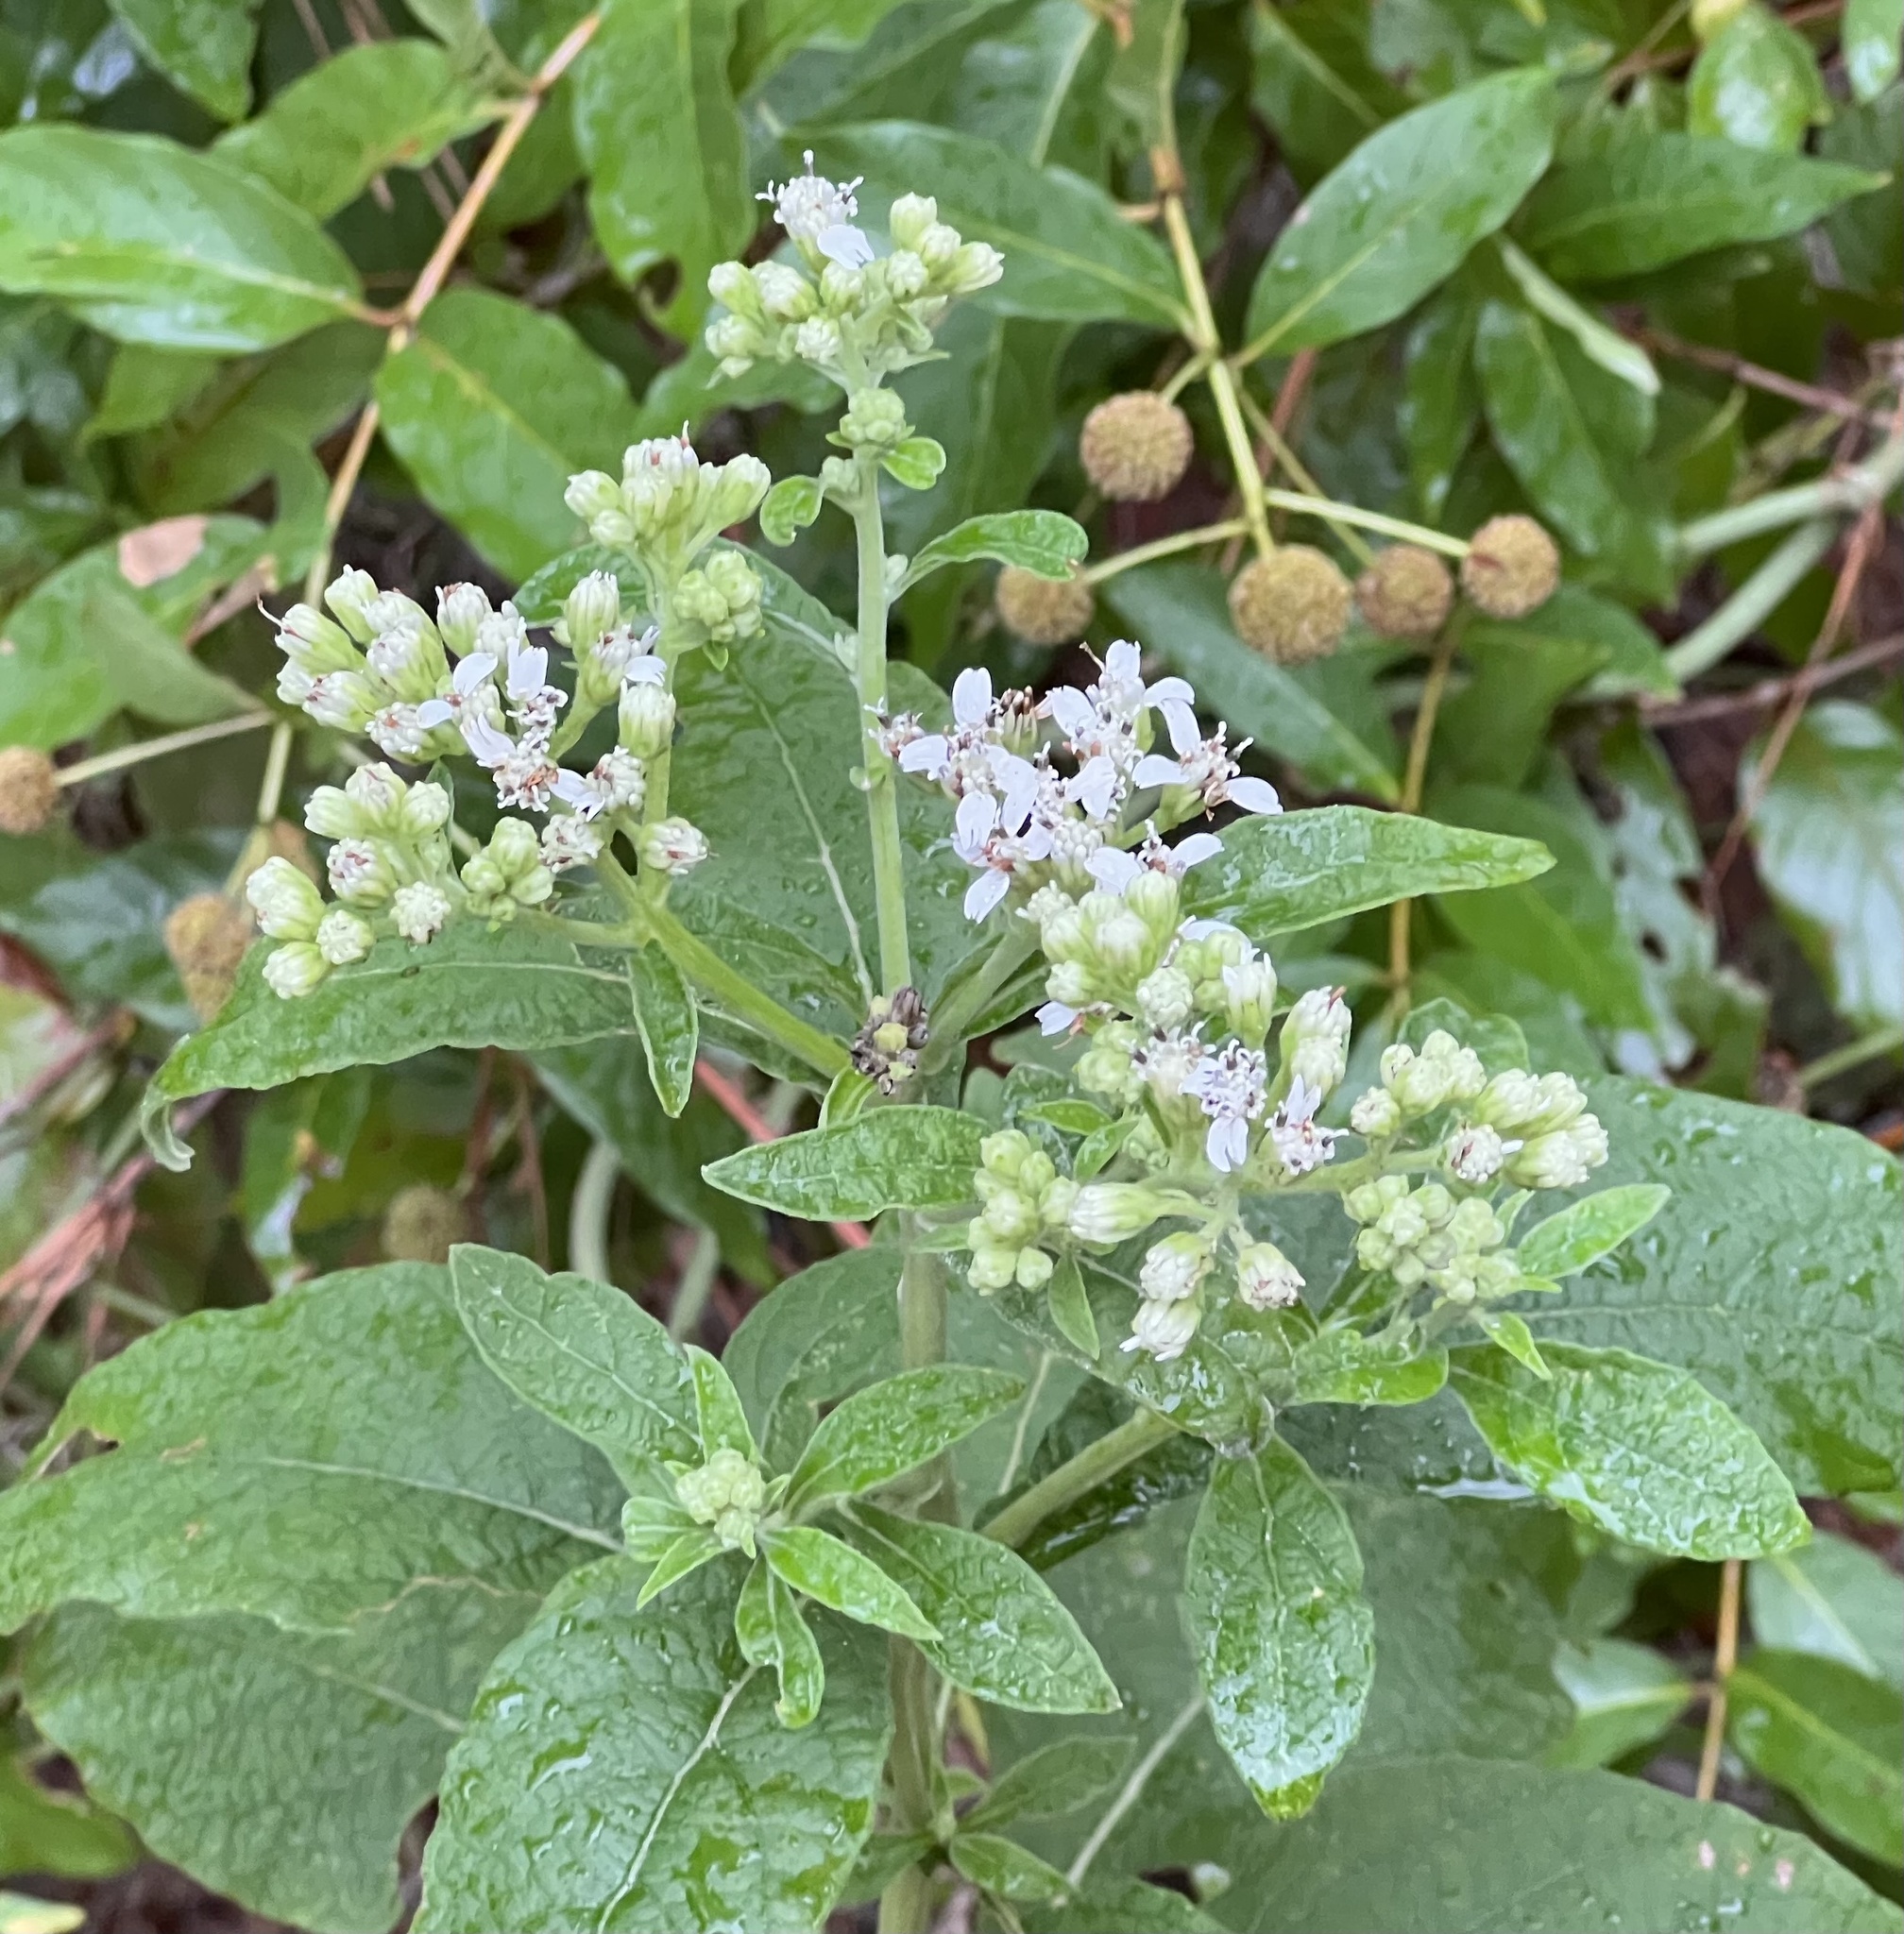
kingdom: Plantae
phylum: Tracheophyta
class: Magnoliopsida
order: Asterales
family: Asteraceae
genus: Verbesina
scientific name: Verbesina virginica
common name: Frostweed
